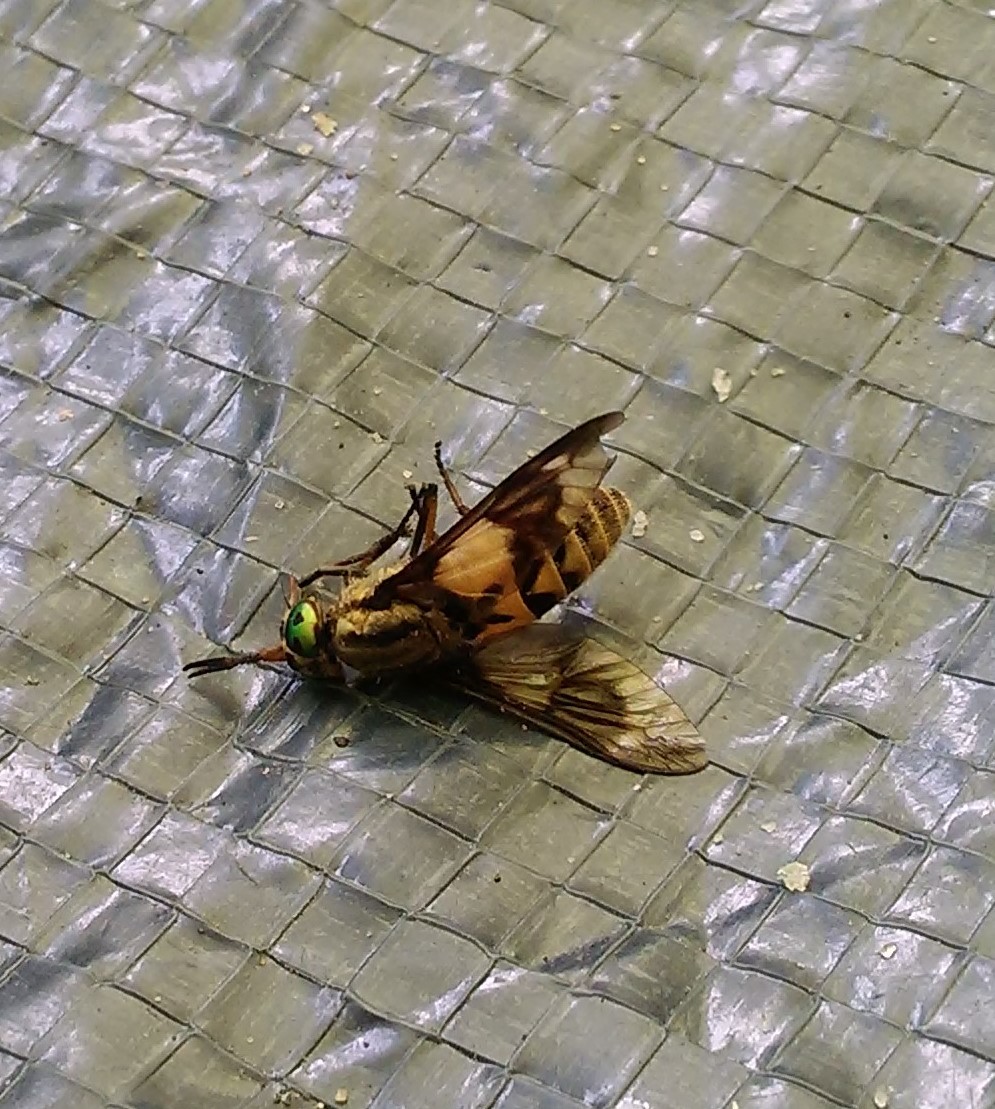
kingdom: Animalia
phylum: Arthropoda
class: Insecta
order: Diptera
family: Tabanidae
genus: Chrysops
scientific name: Chrysops relictus
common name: Twin-lobed deerfly
